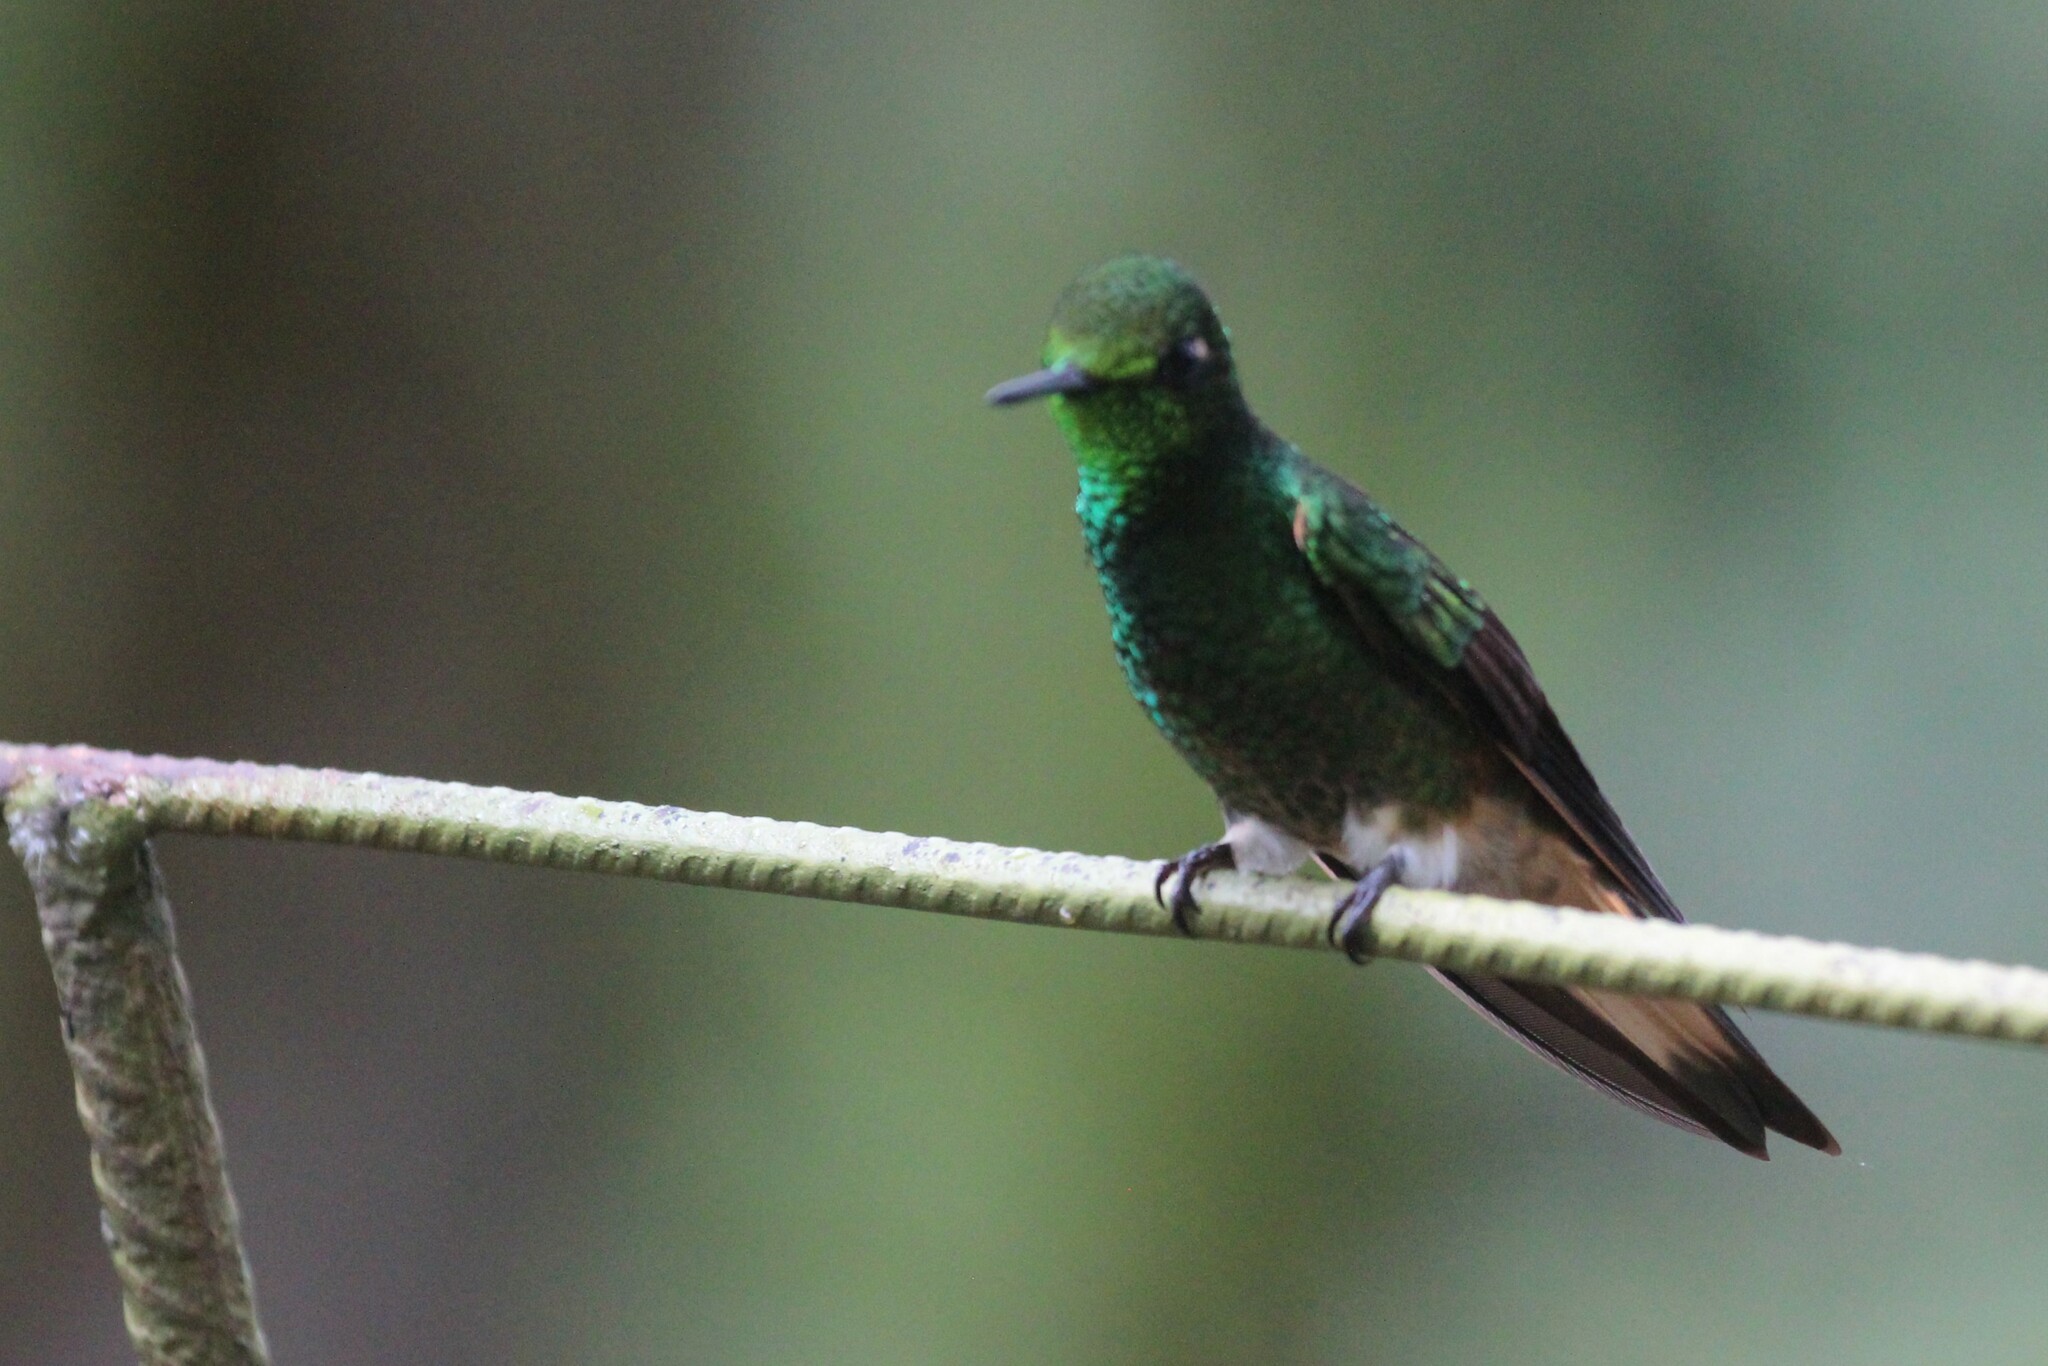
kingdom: Animalia
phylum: Chordata
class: Aves
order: Apodiformes
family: Trochilidae
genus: Boissonneaua
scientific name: Boissonneaua flavescens
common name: Buff-tailed coronet
